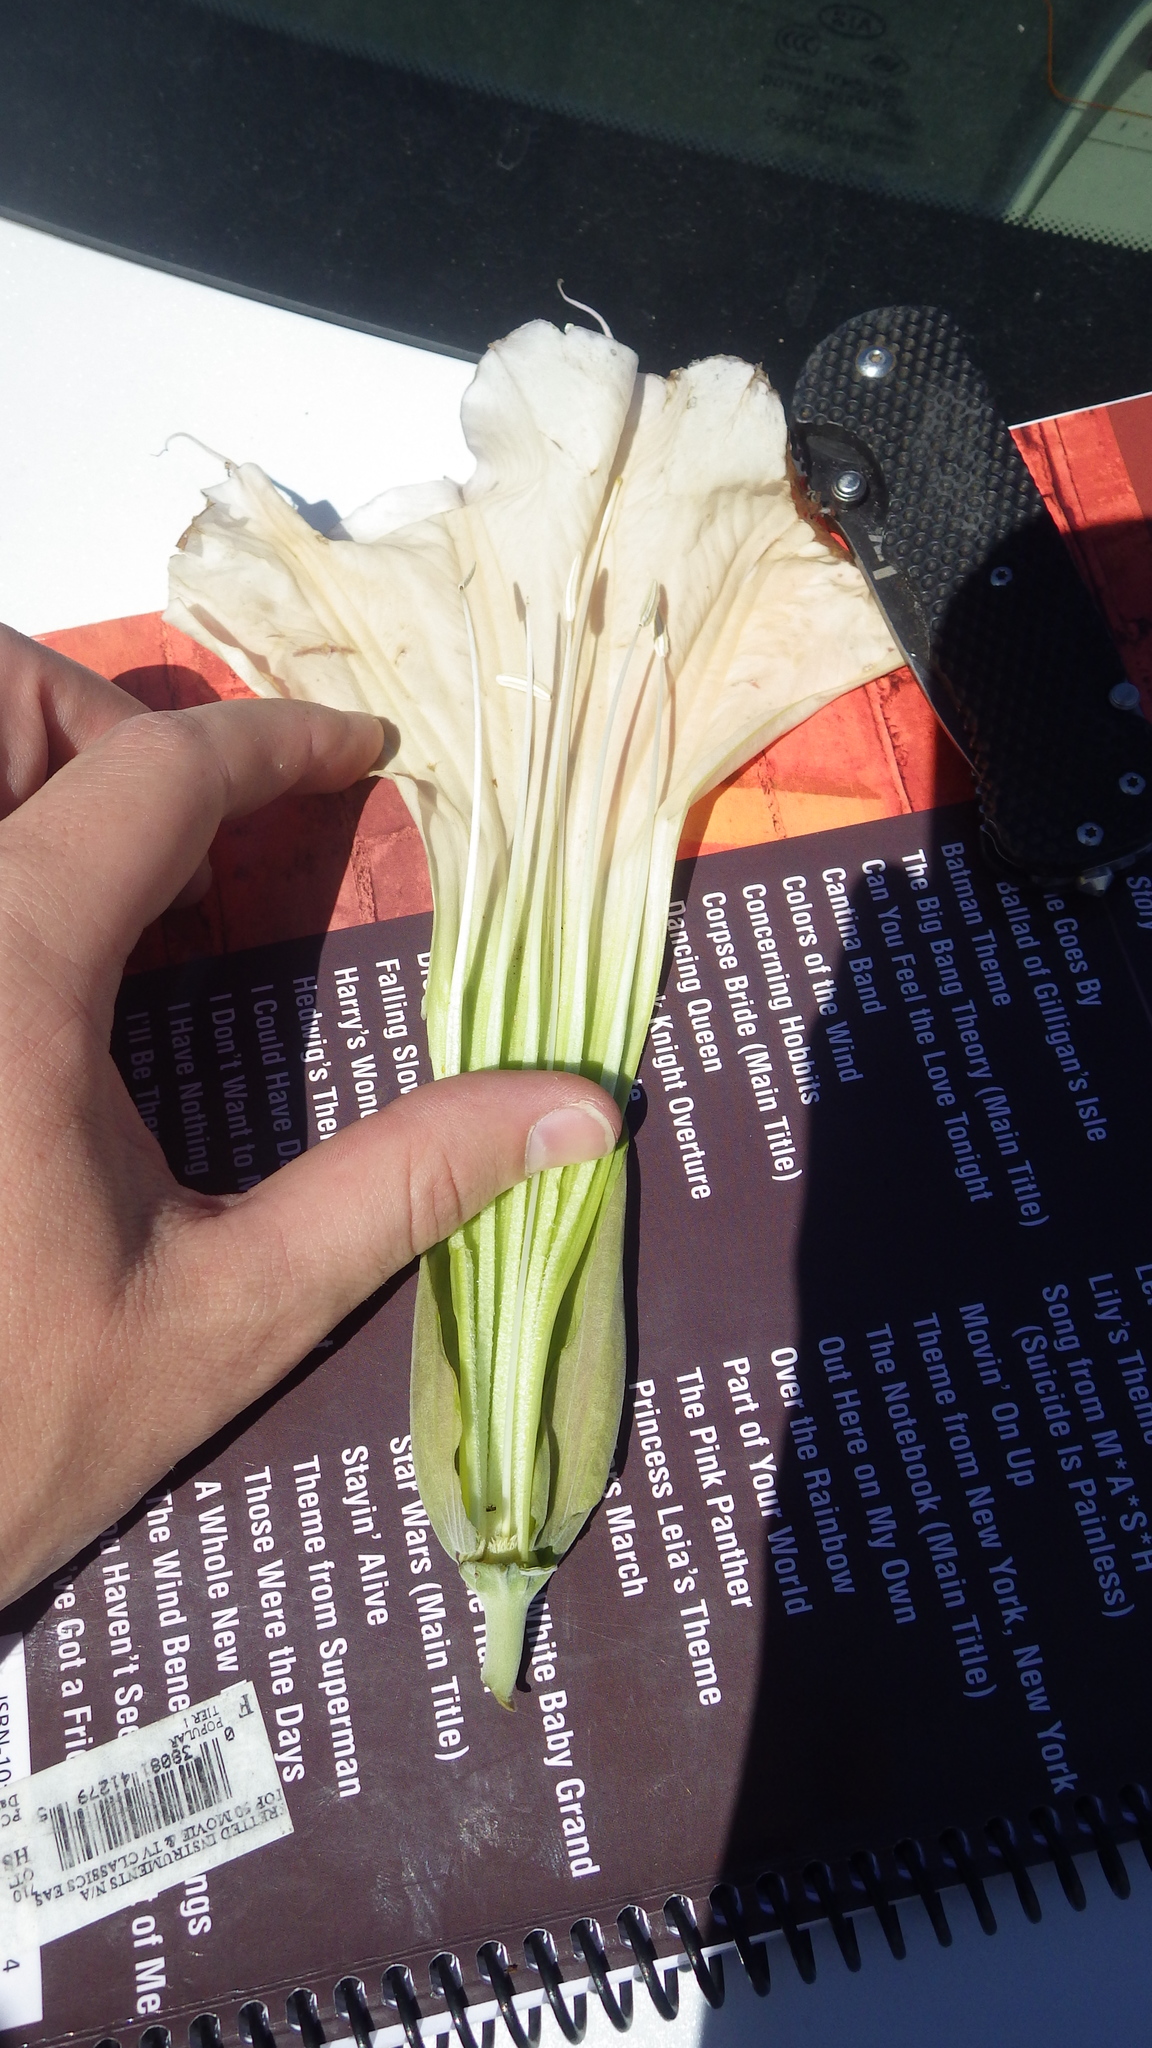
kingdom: Plantae
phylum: Tracheophyta
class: Magnoliopsida
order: Solanales
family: Solanaceae
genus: Datura
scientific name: Datura wrightii
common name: Sacred thorn-apple
